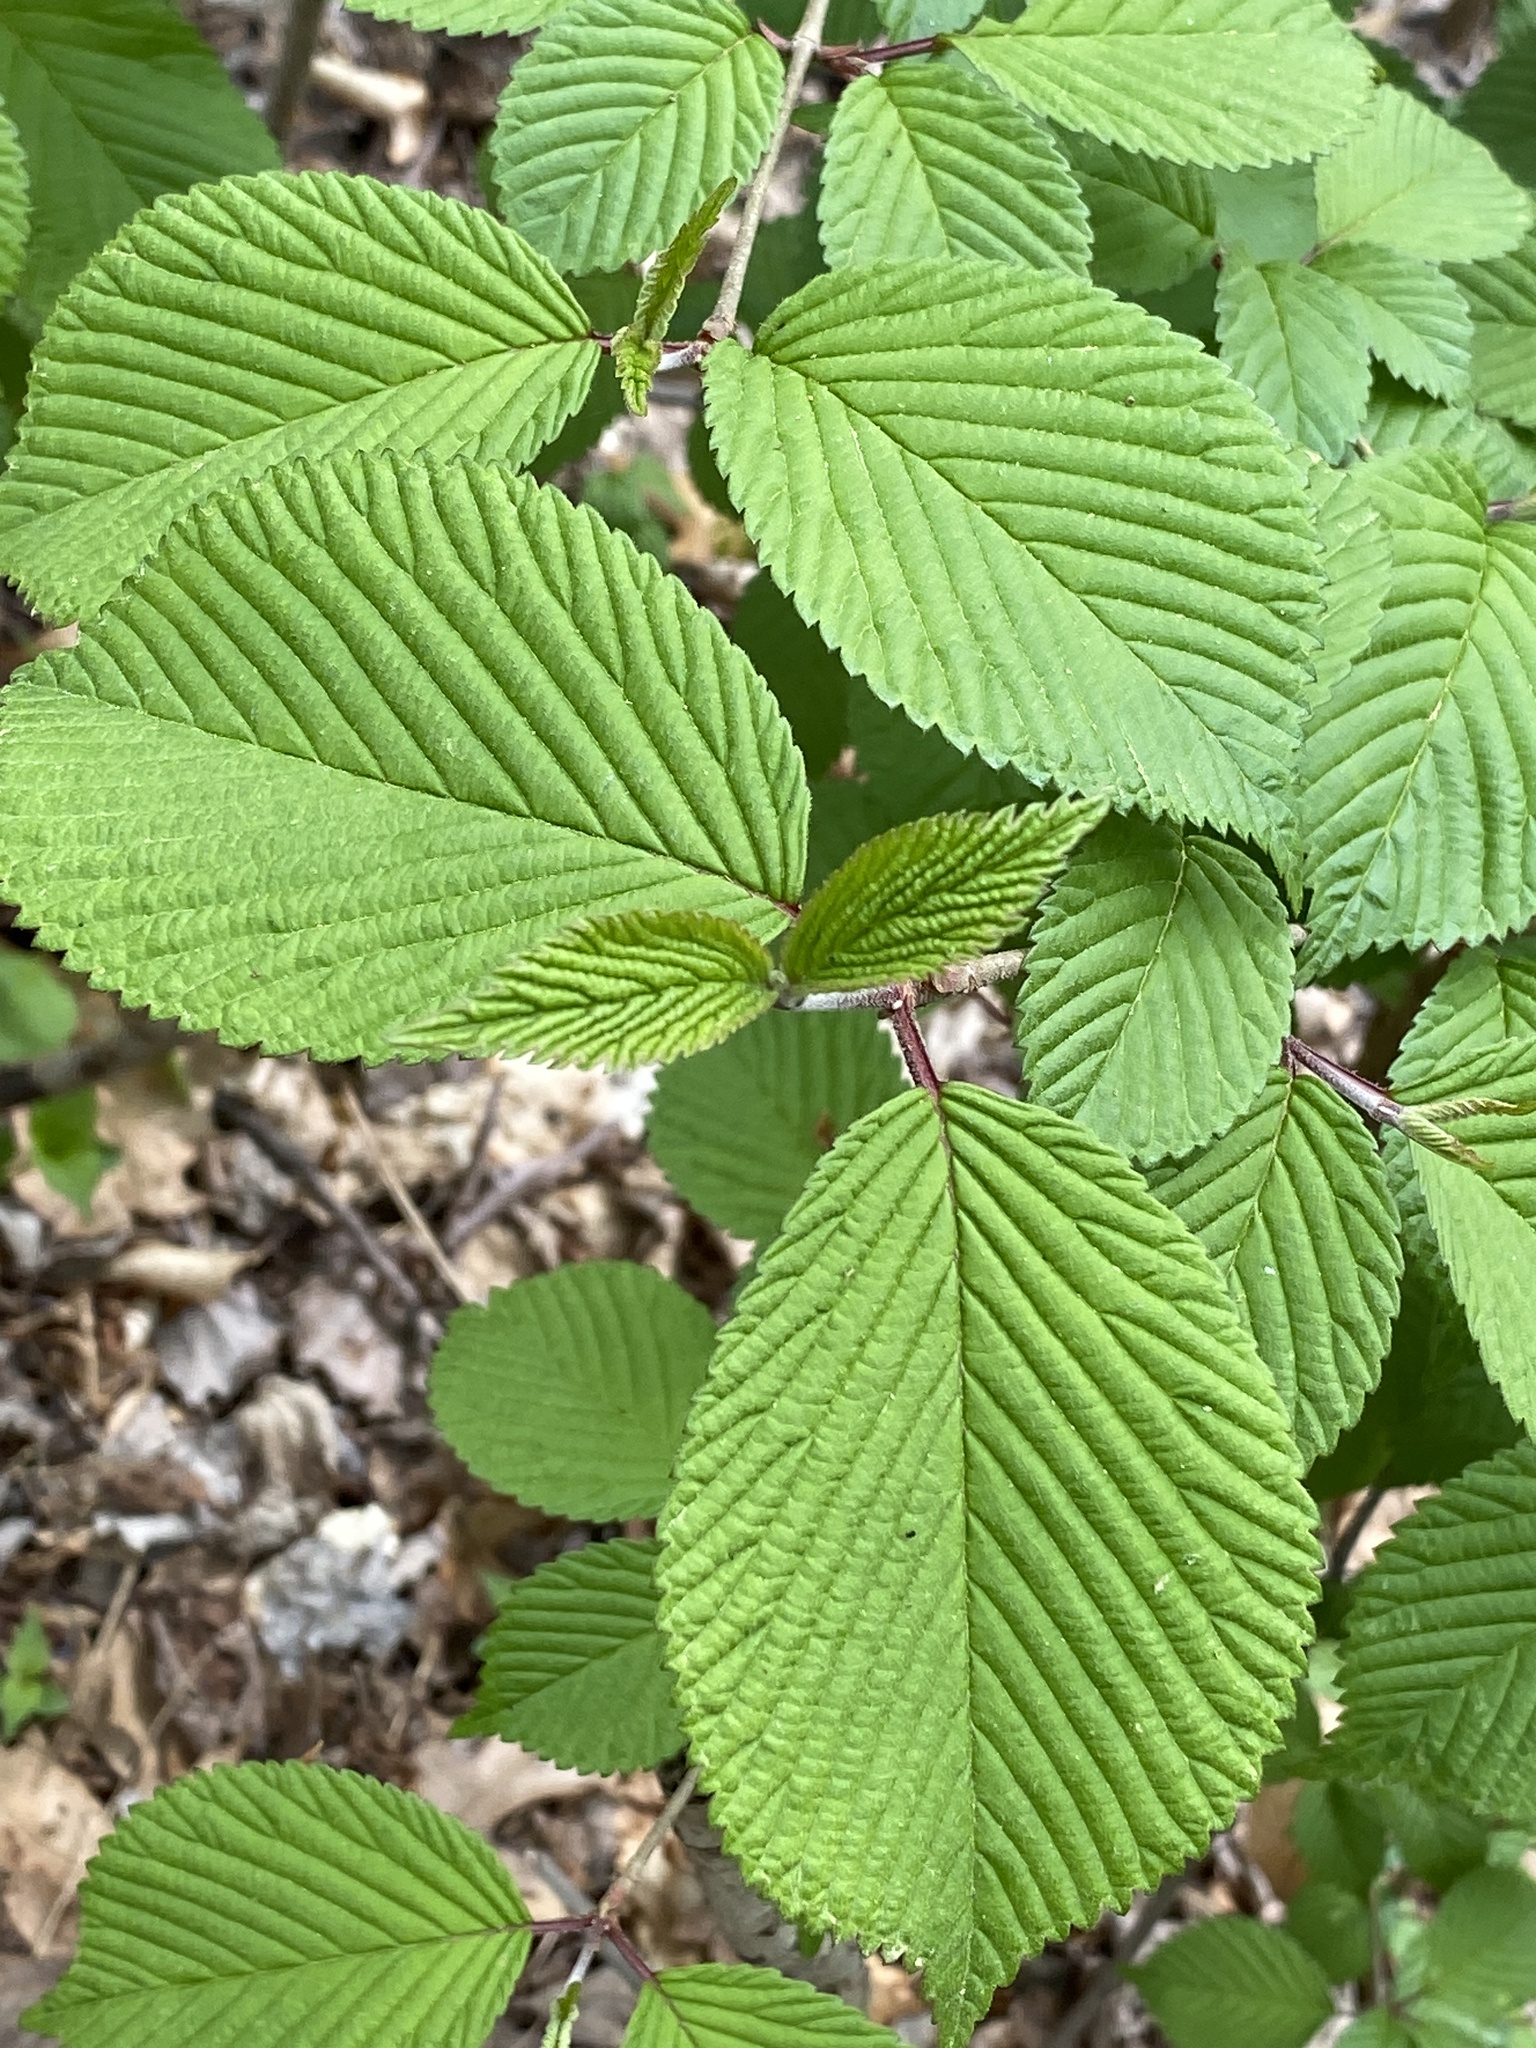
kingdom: Plantae
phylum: Tracheophyta
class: Magnoliopsida
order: Dipsacales
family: Viburnaceae
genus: Viburnum
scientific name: Viburnum plicatum
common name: Japanese snowball
